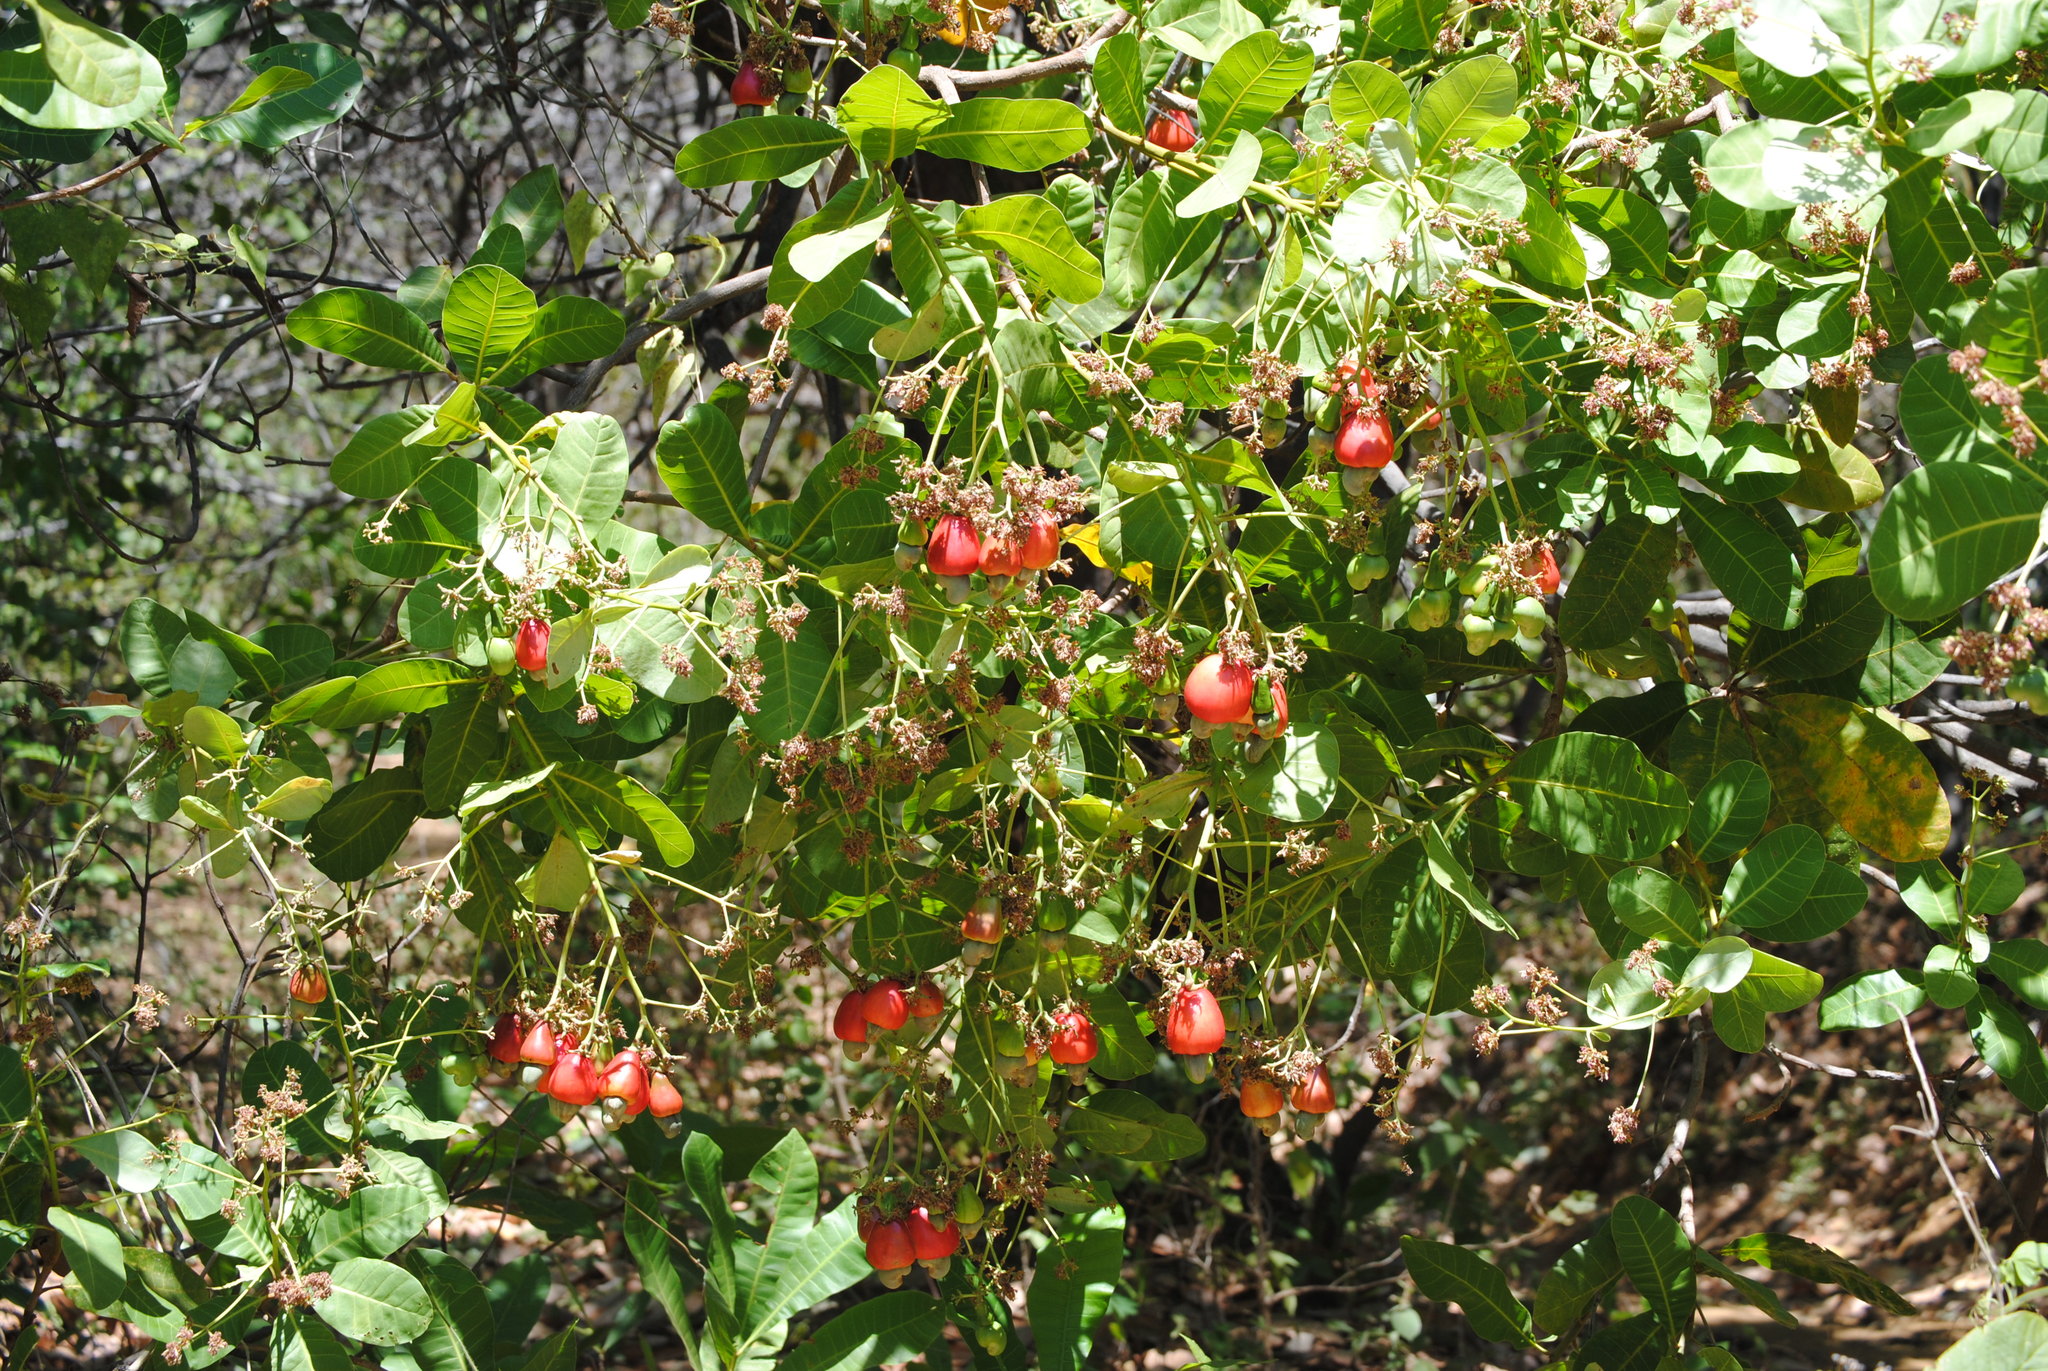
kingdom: Plantae
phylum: Tracheophyta
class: Magnoliopsida
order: Sapindales
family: Anacardiaceae
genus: Anacardium
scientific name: Anacardium occidentale
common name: Cashew
